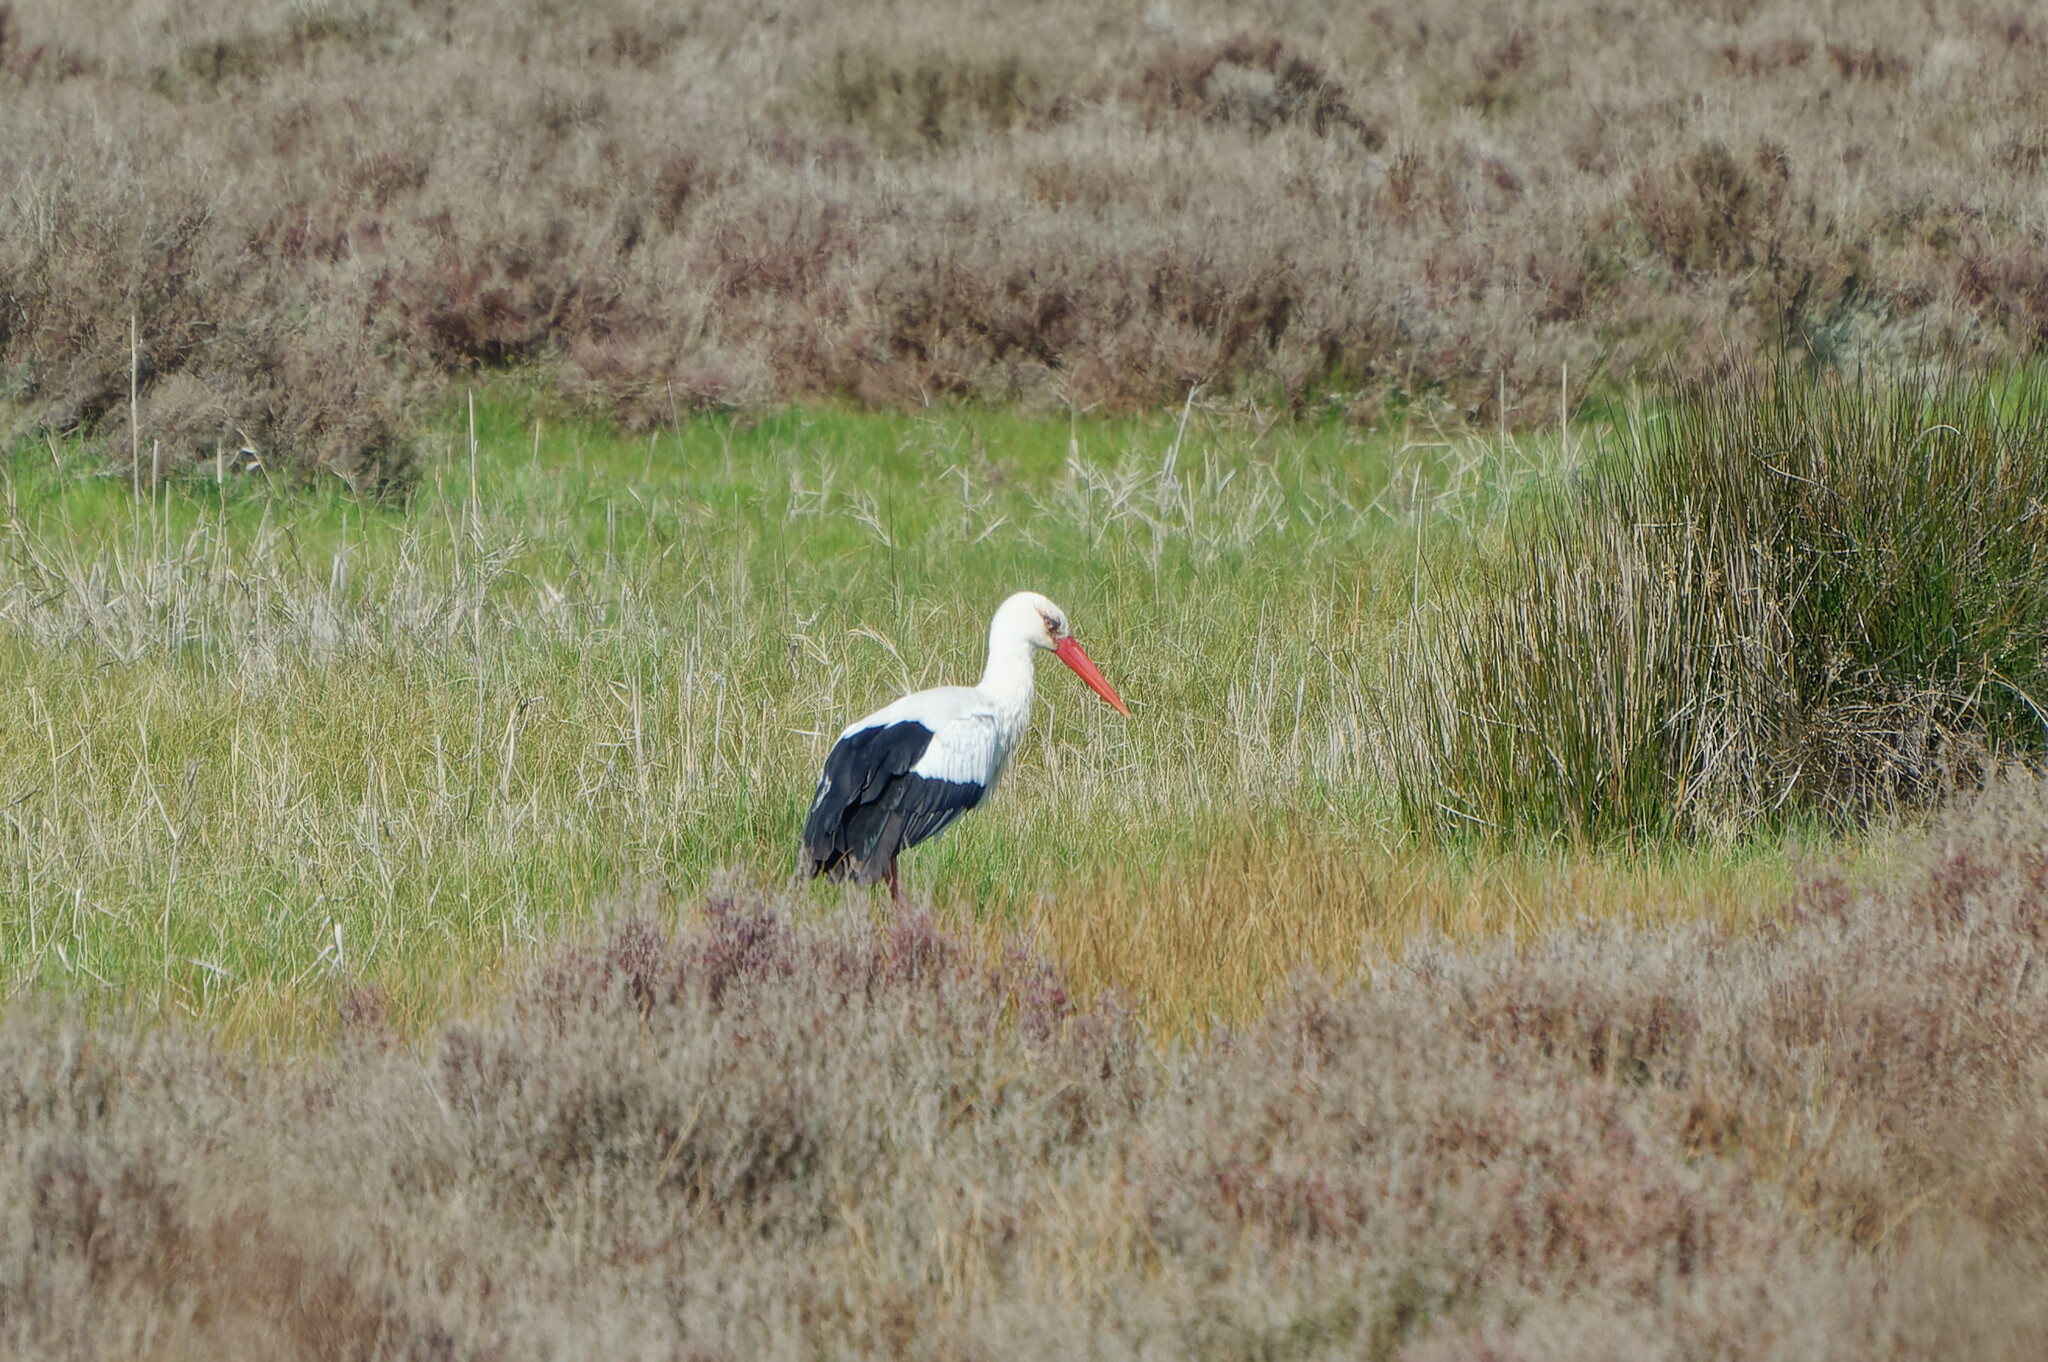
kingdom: Animalia
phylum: Chordata
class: Aves
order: Ciconiiformes
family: Ciconiidae
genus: Ciconia
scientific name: Ciconia ciconia
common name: White stork
